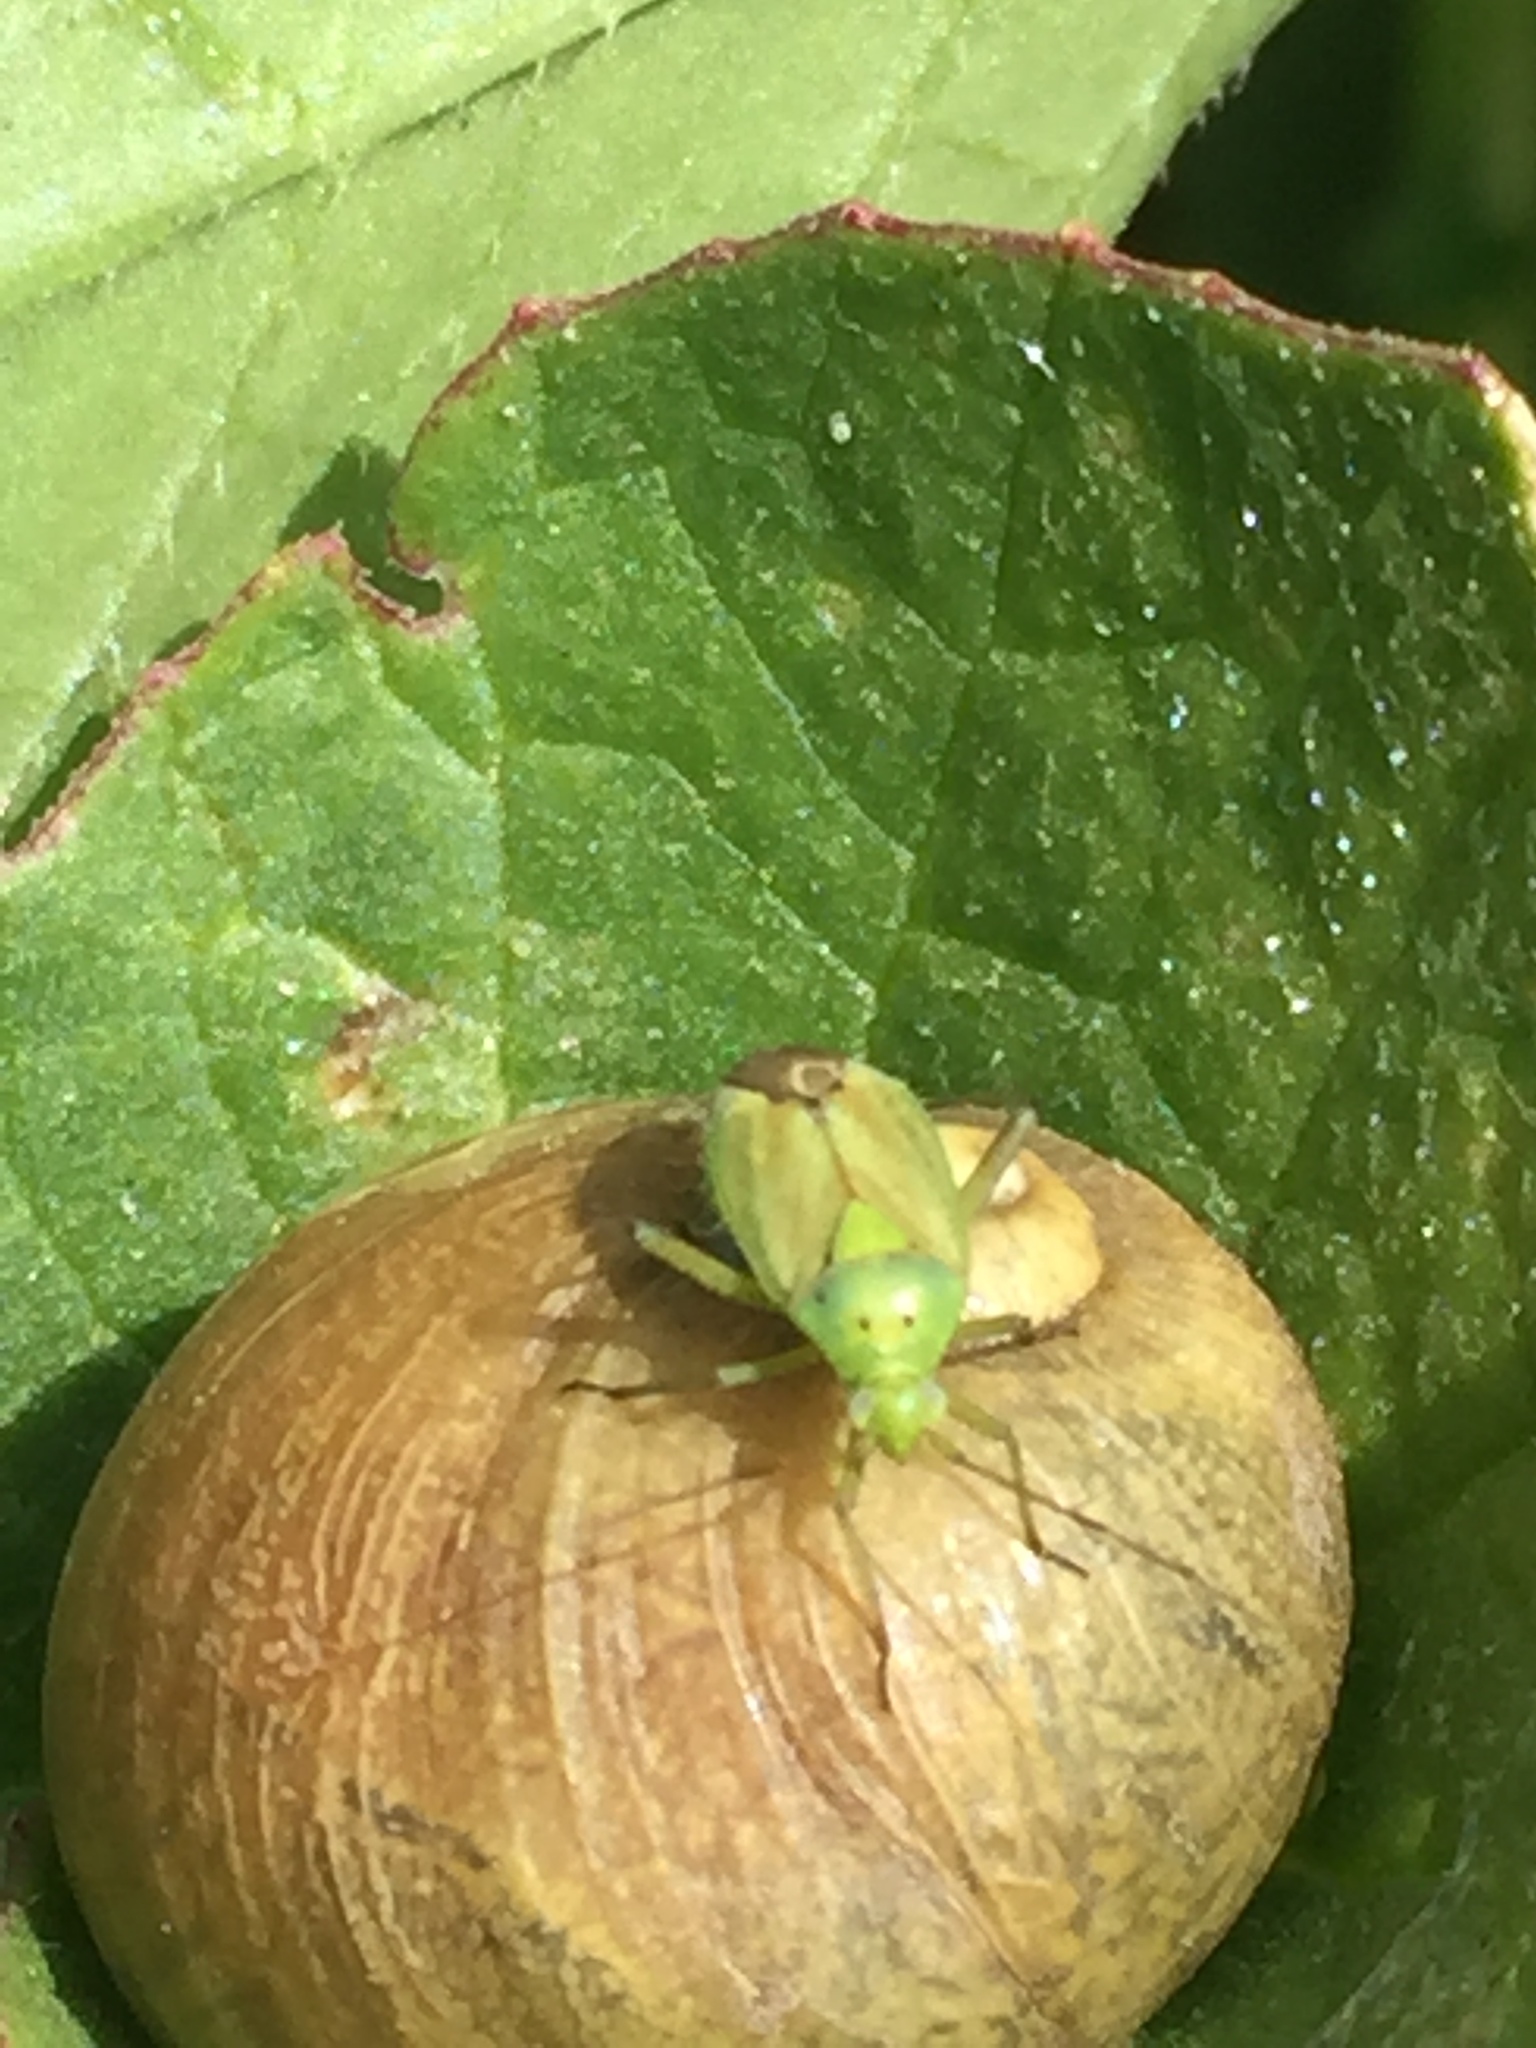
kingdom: Animalia
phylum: Arthropoda
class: Insecta
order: Hemiptera
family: Miridae
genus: Closterotomus
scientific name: Closterotomus norvegicus
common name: Plant bug
